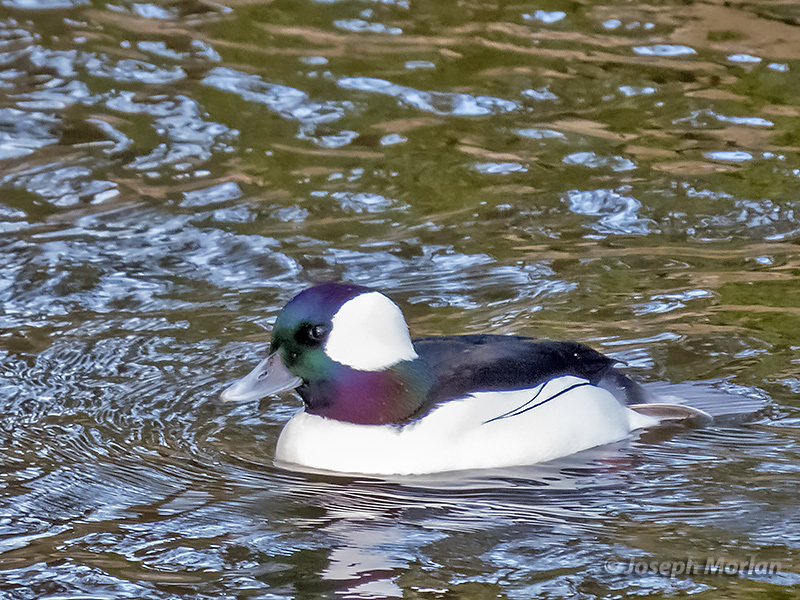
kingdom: Animalia
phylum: Chordata
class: Aves
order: Anseriformes
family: Anatidae
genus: Bucephala
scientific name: Bucephala albeola
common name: Bufflehead
